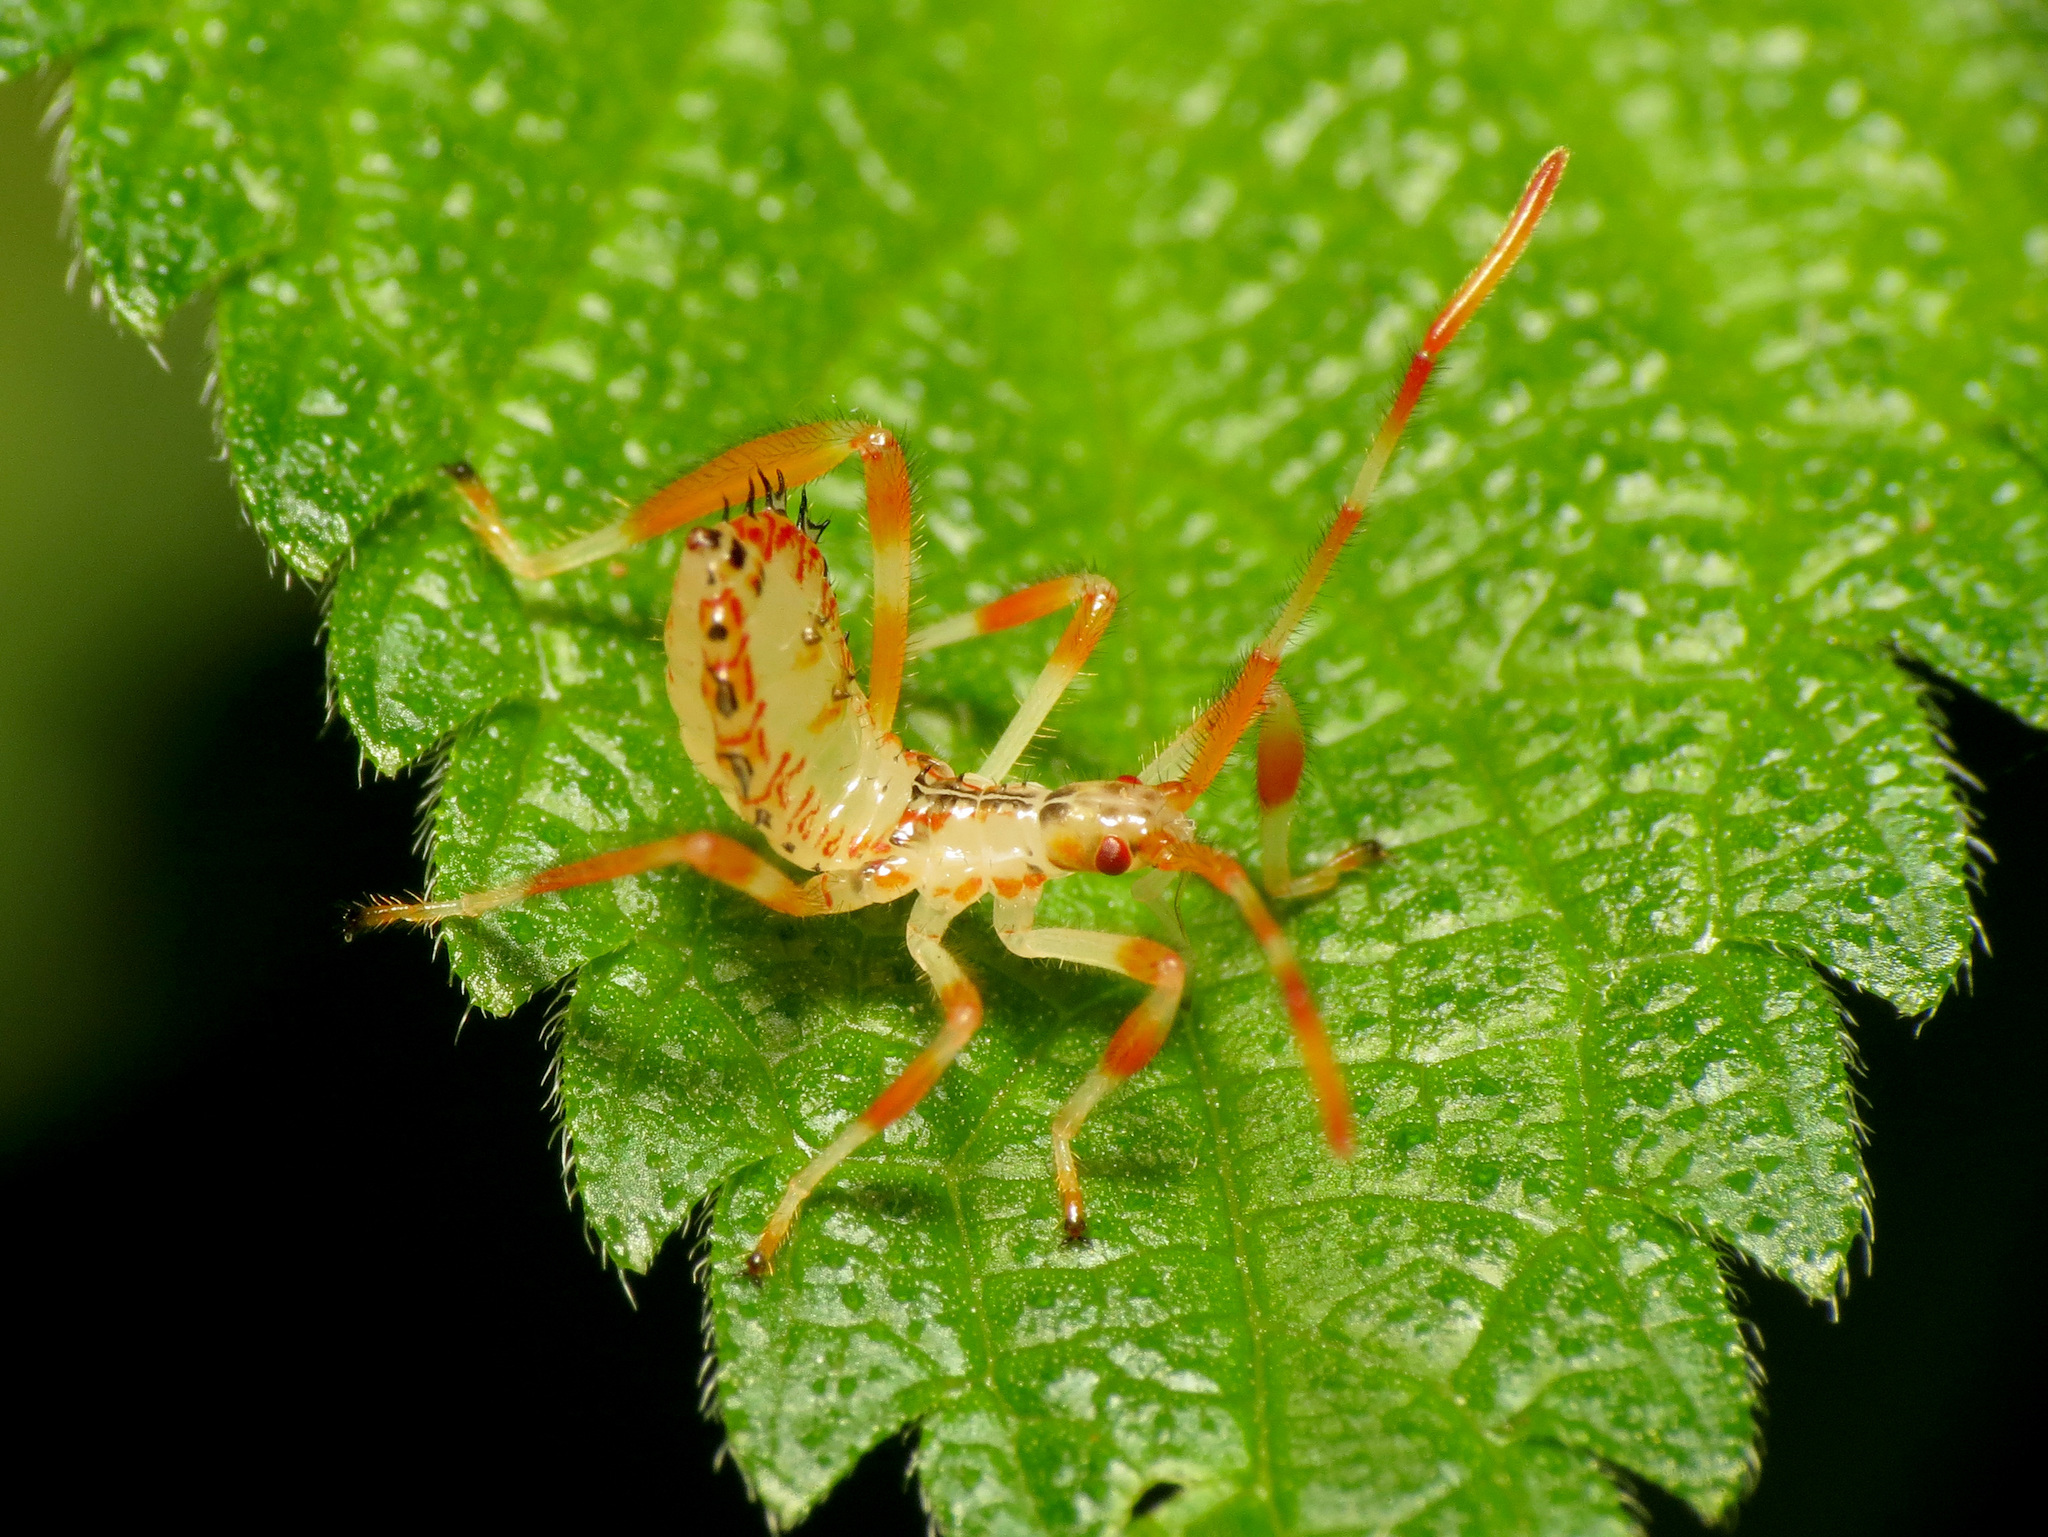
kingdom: Animalia
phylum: Arthropoda
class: Insecta
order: Hemiptera
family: Coreidae
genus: Acanthocephala
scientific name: Acanthocephala terminalis
